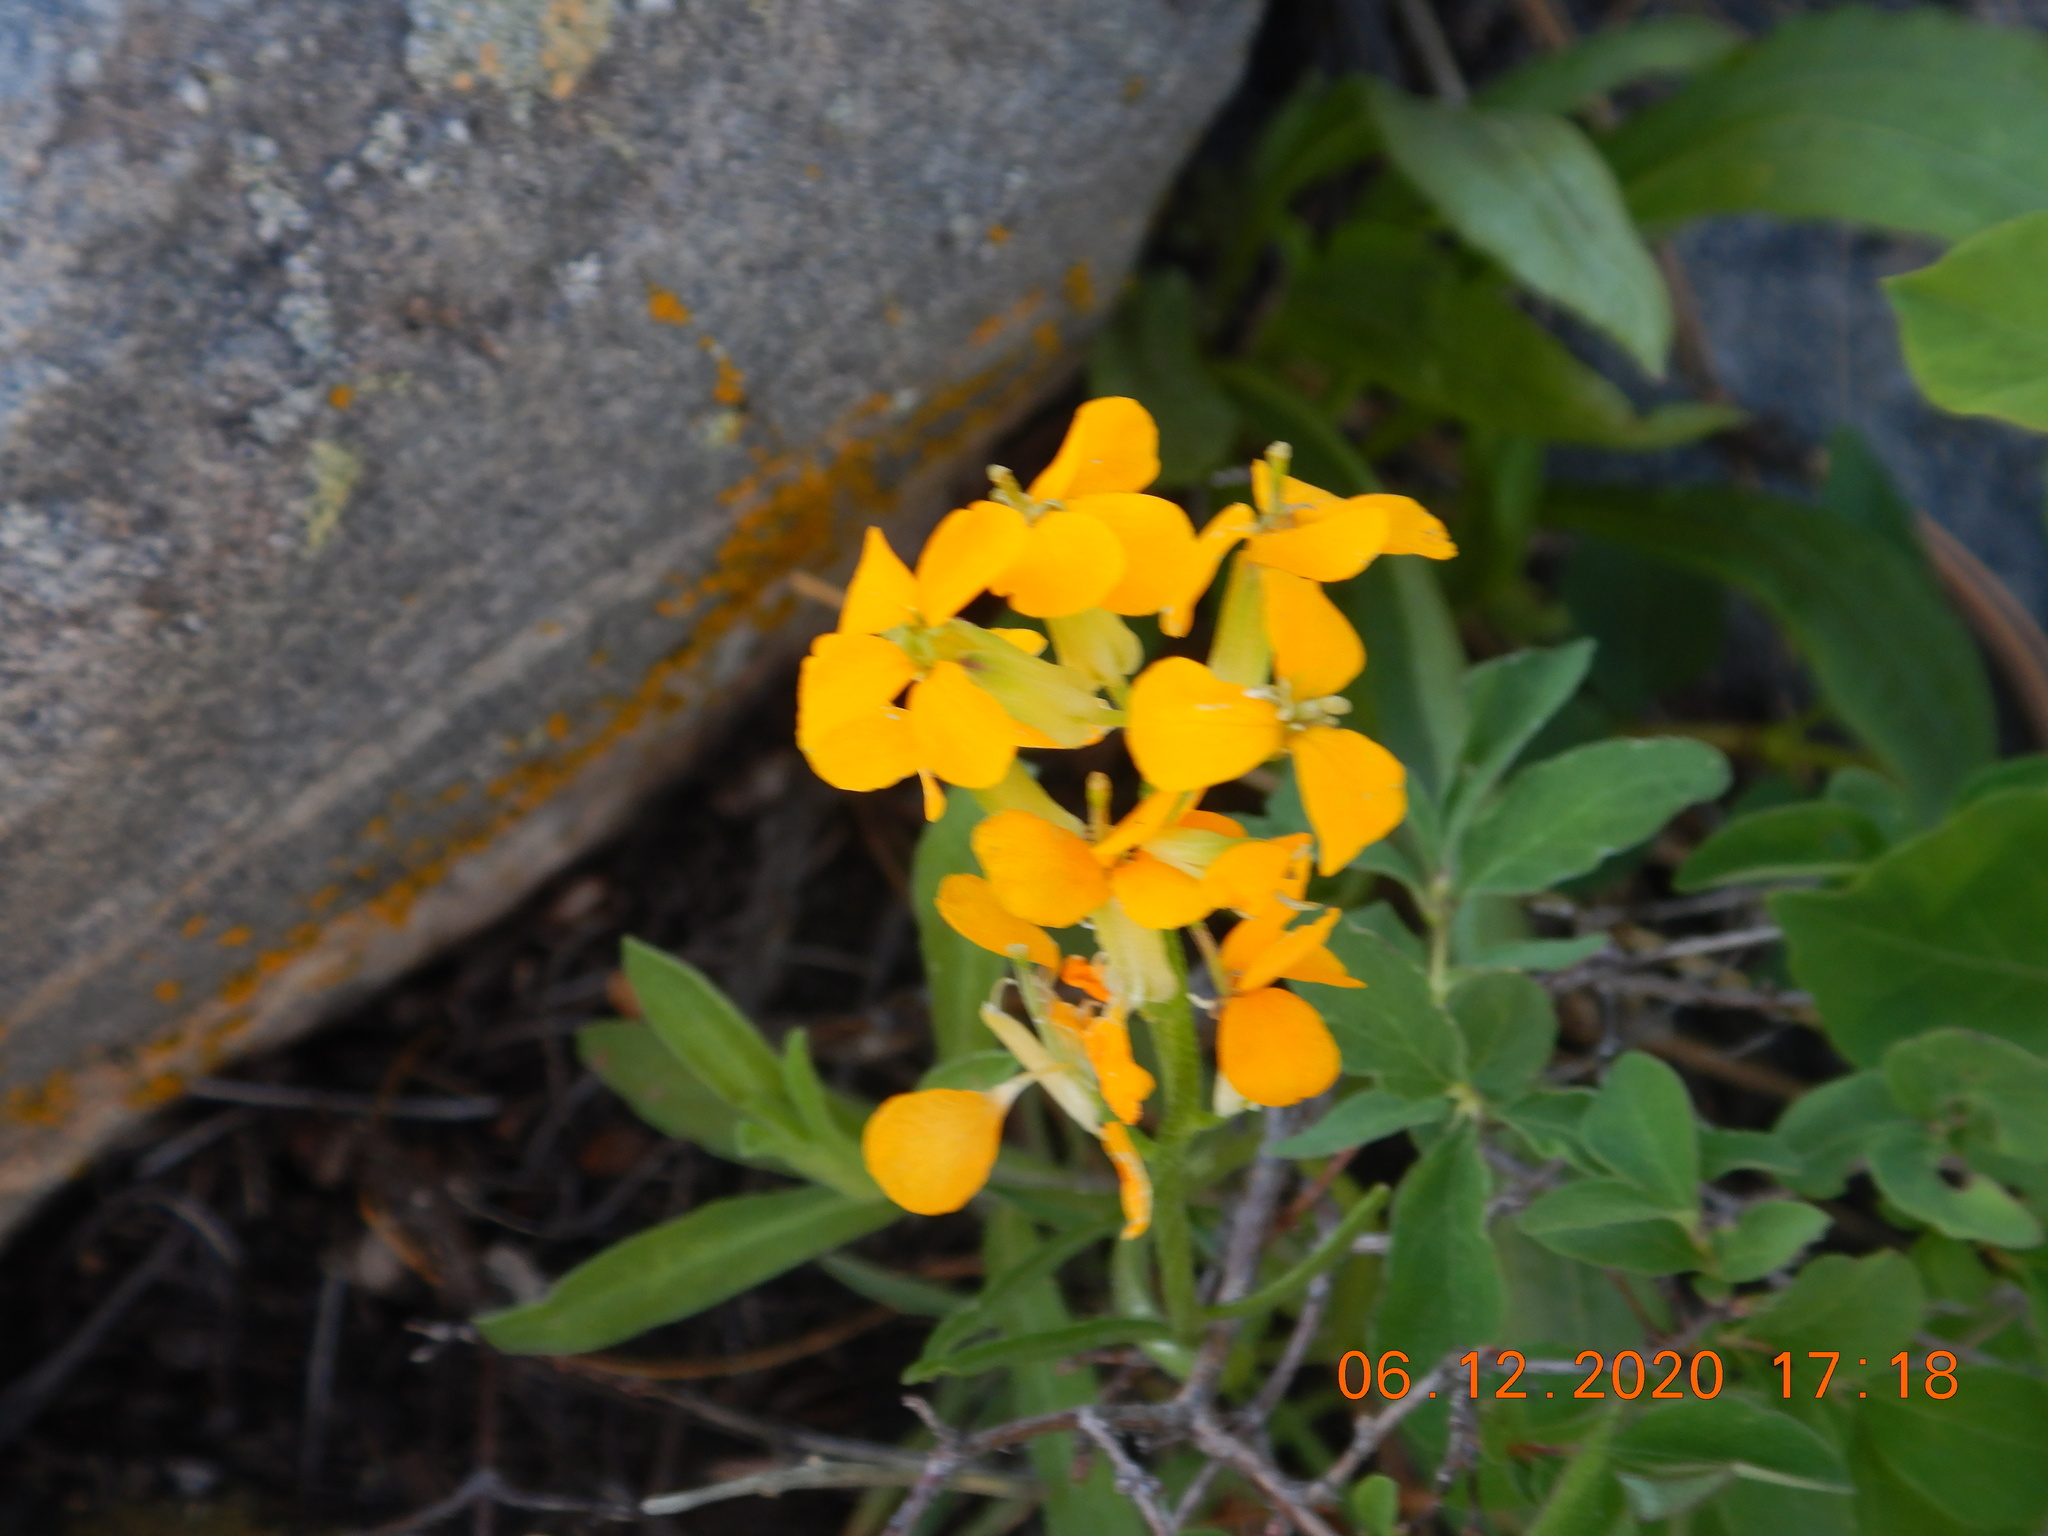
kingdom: Plantae
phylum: Tracheophyta
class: Magnoliopsida
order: Brassicales
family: Brassicaceae
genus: Erysimum
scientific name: Erysimum capitatum
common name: Western wallflower
